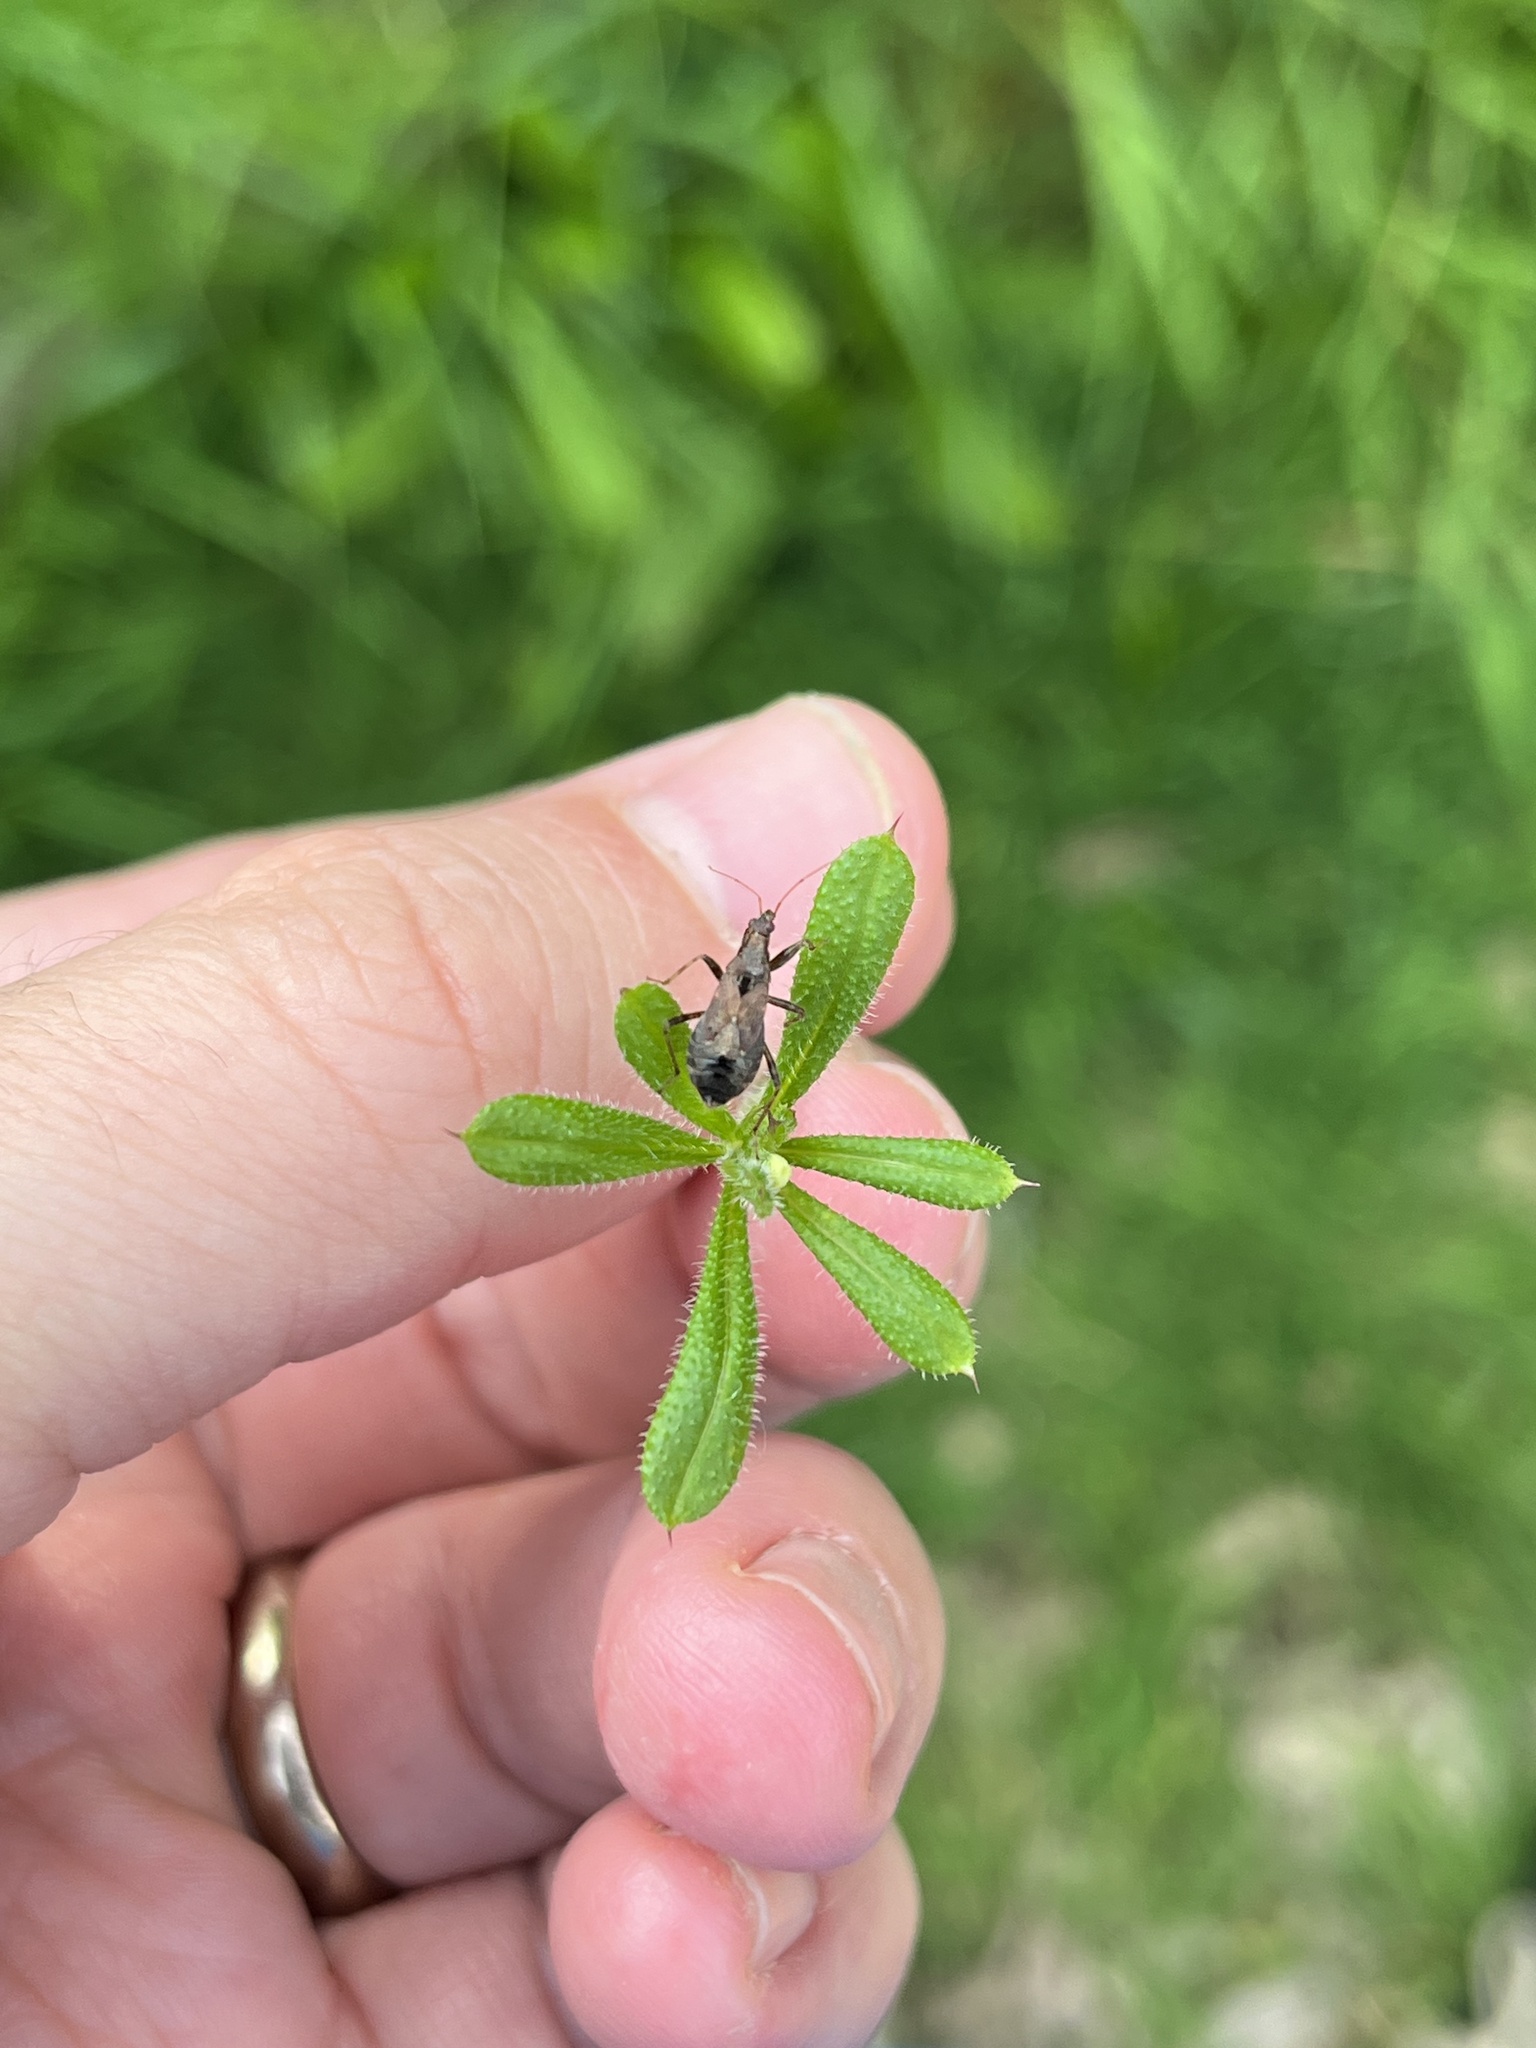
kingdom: Animalia
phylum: Arthropoda
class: Insecta
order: Hemiptera
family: Nabidae
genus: Himacerus
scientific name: Himacerus mirmicoides
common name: Ant damsel bug
